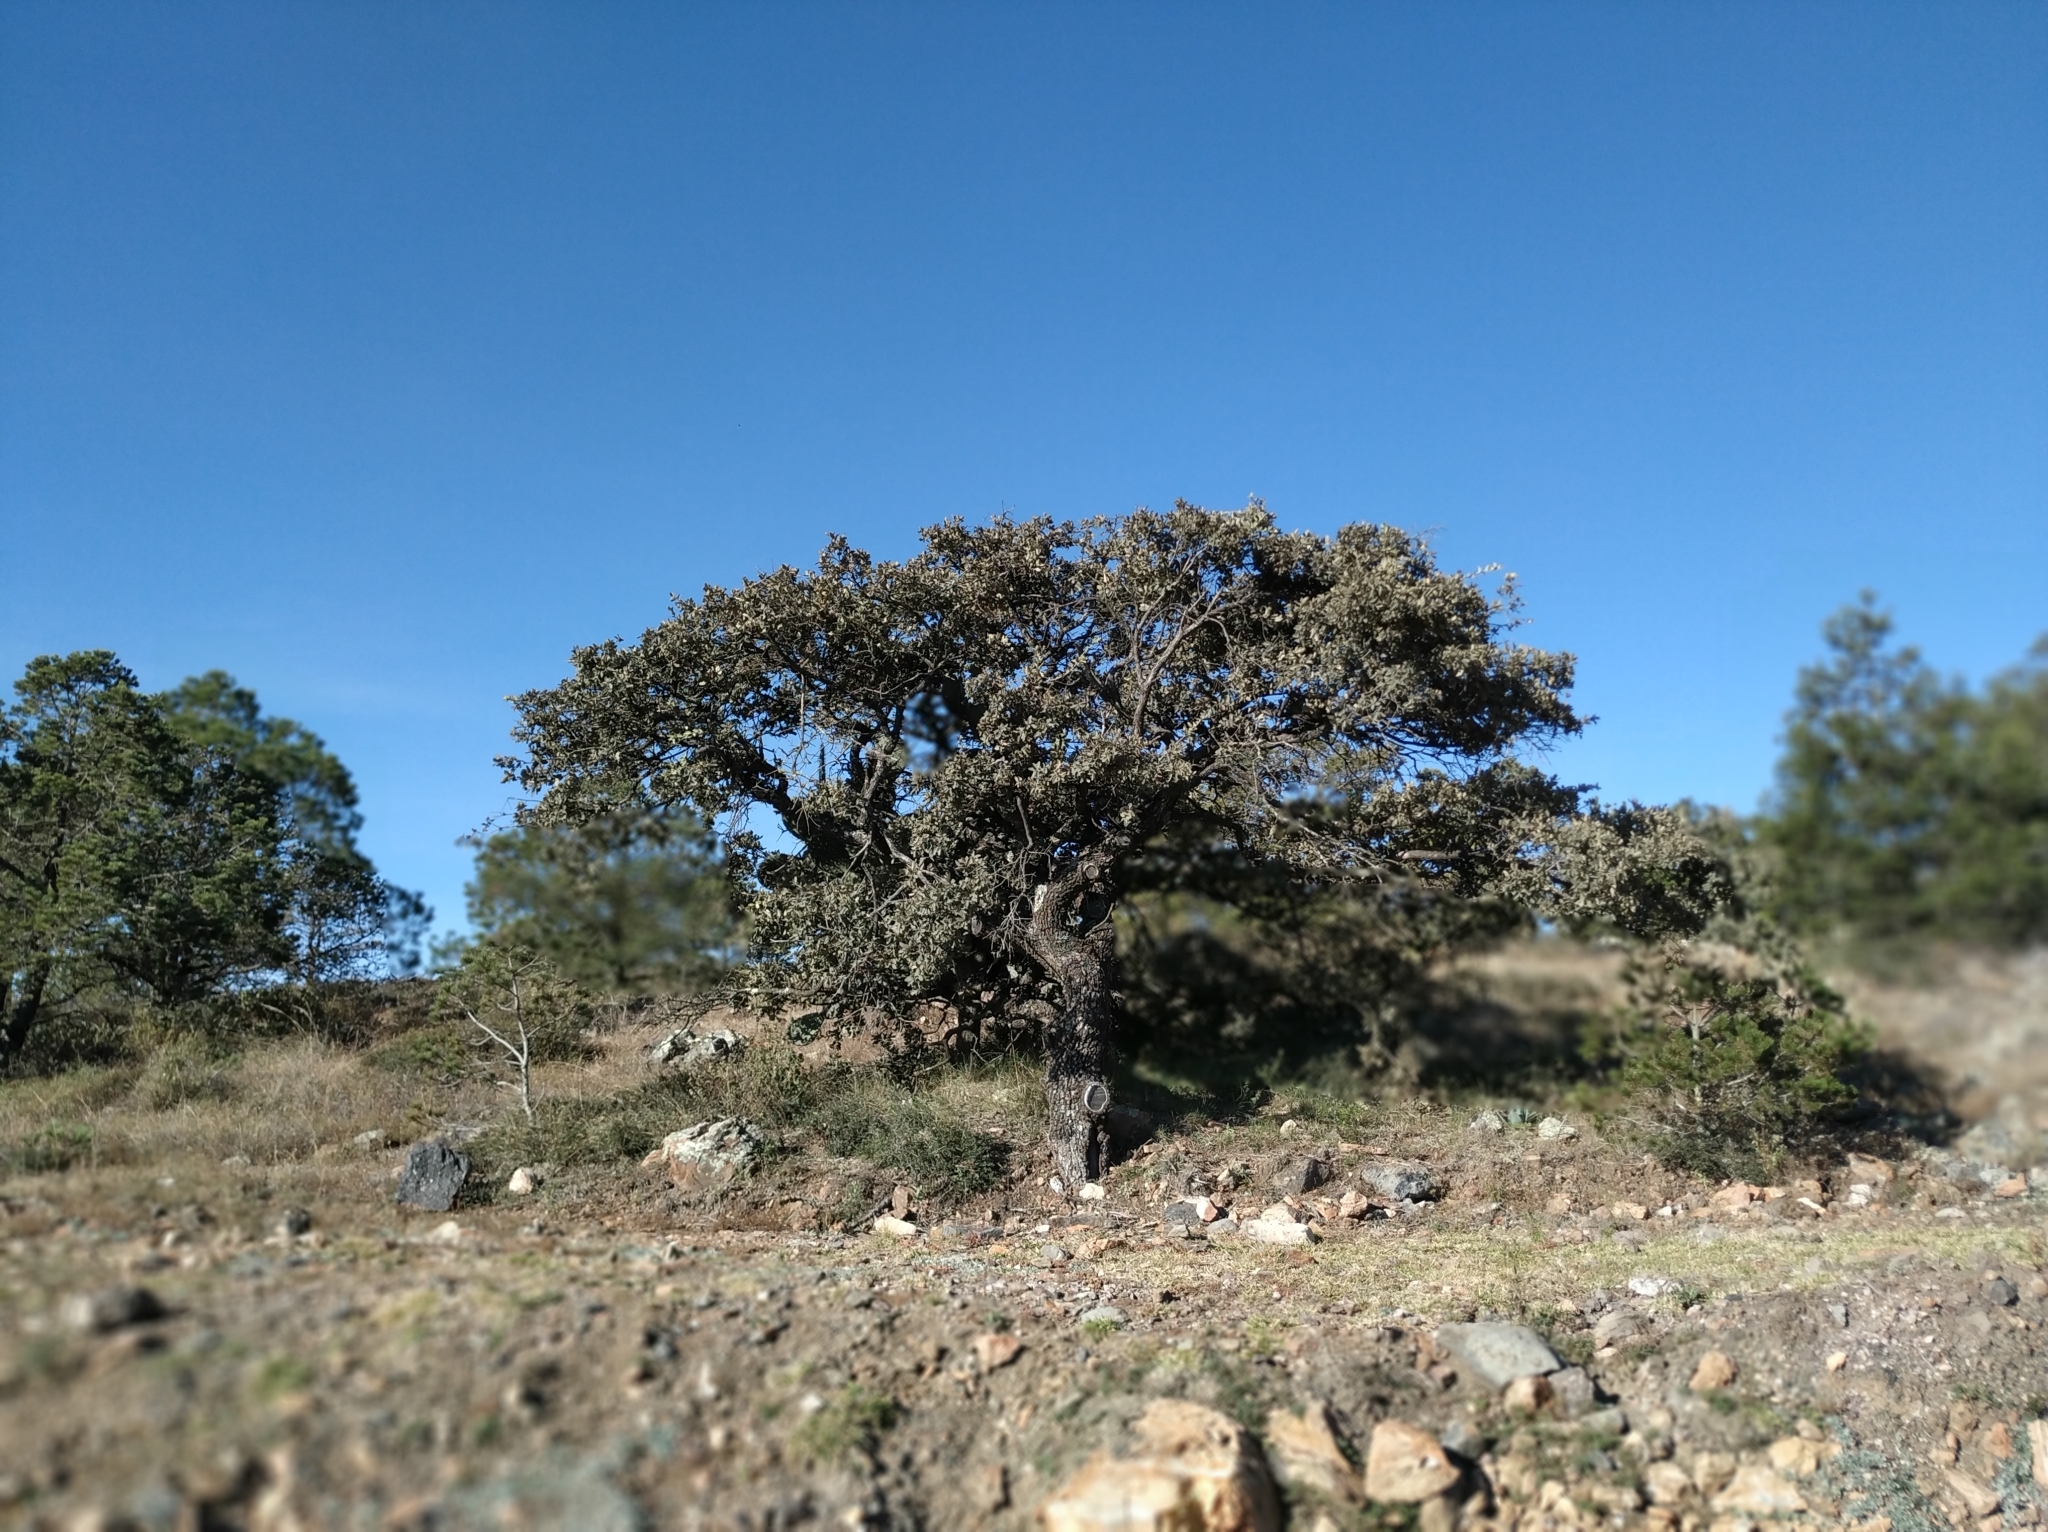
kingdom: Plantae
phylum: Tracheophyta
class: Magnoliopsida
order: Fagales
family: Fagaceae
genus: Quercus
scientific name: Quercus
